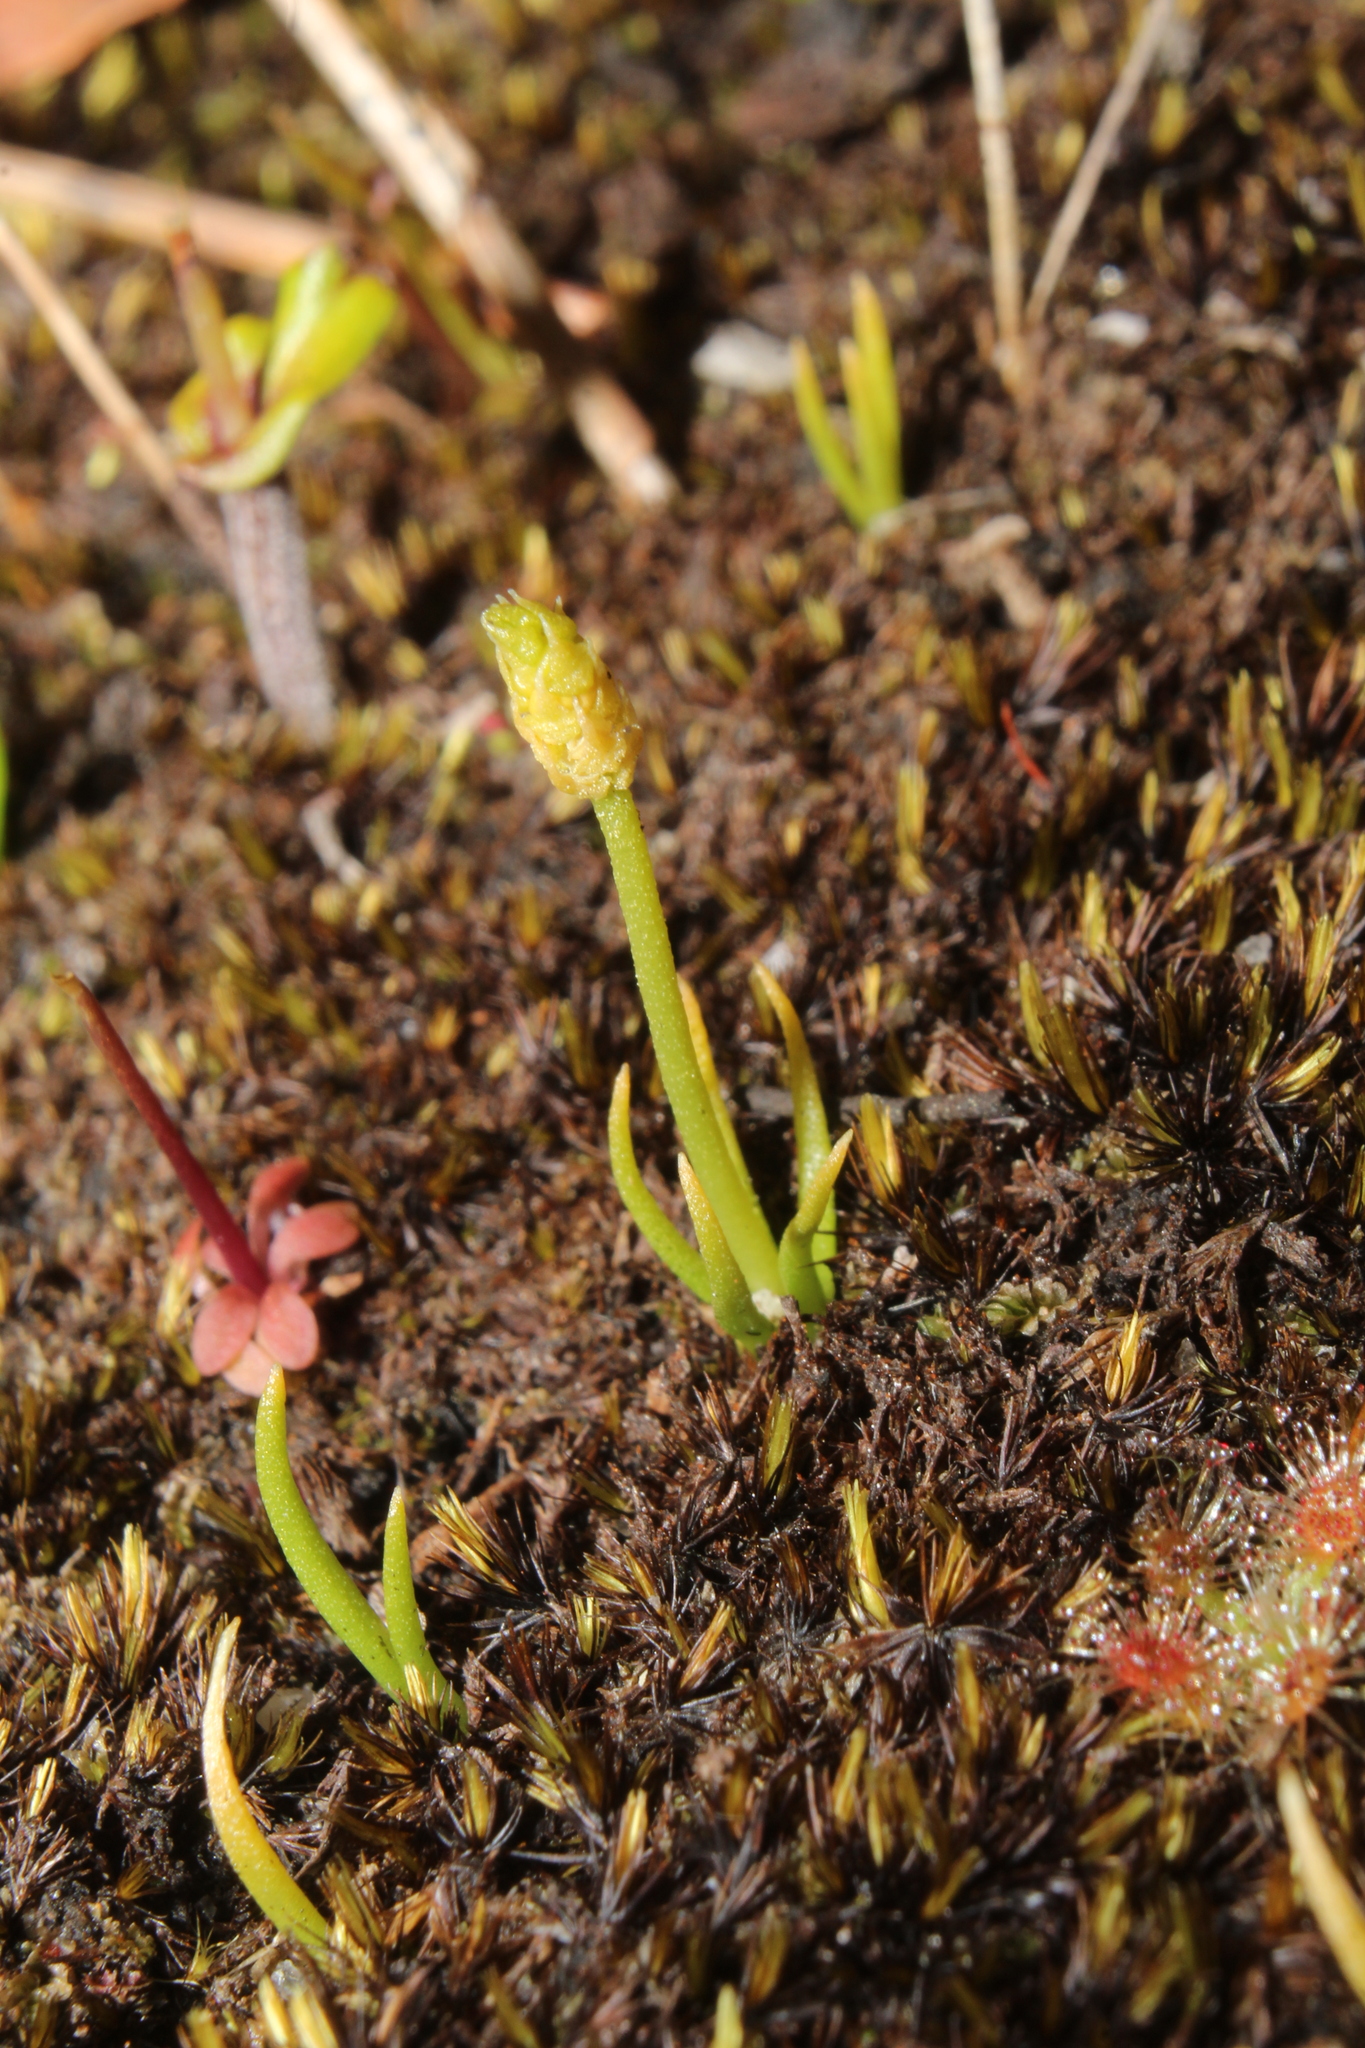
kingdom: Plantae
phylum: Tracheophyta
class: Lycopodiopsida
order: Lycopodiales
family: Lycopodiaceae
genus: Phylloglossum
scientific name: Phylloglossum drummondii
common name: Pigmy-club-moss
